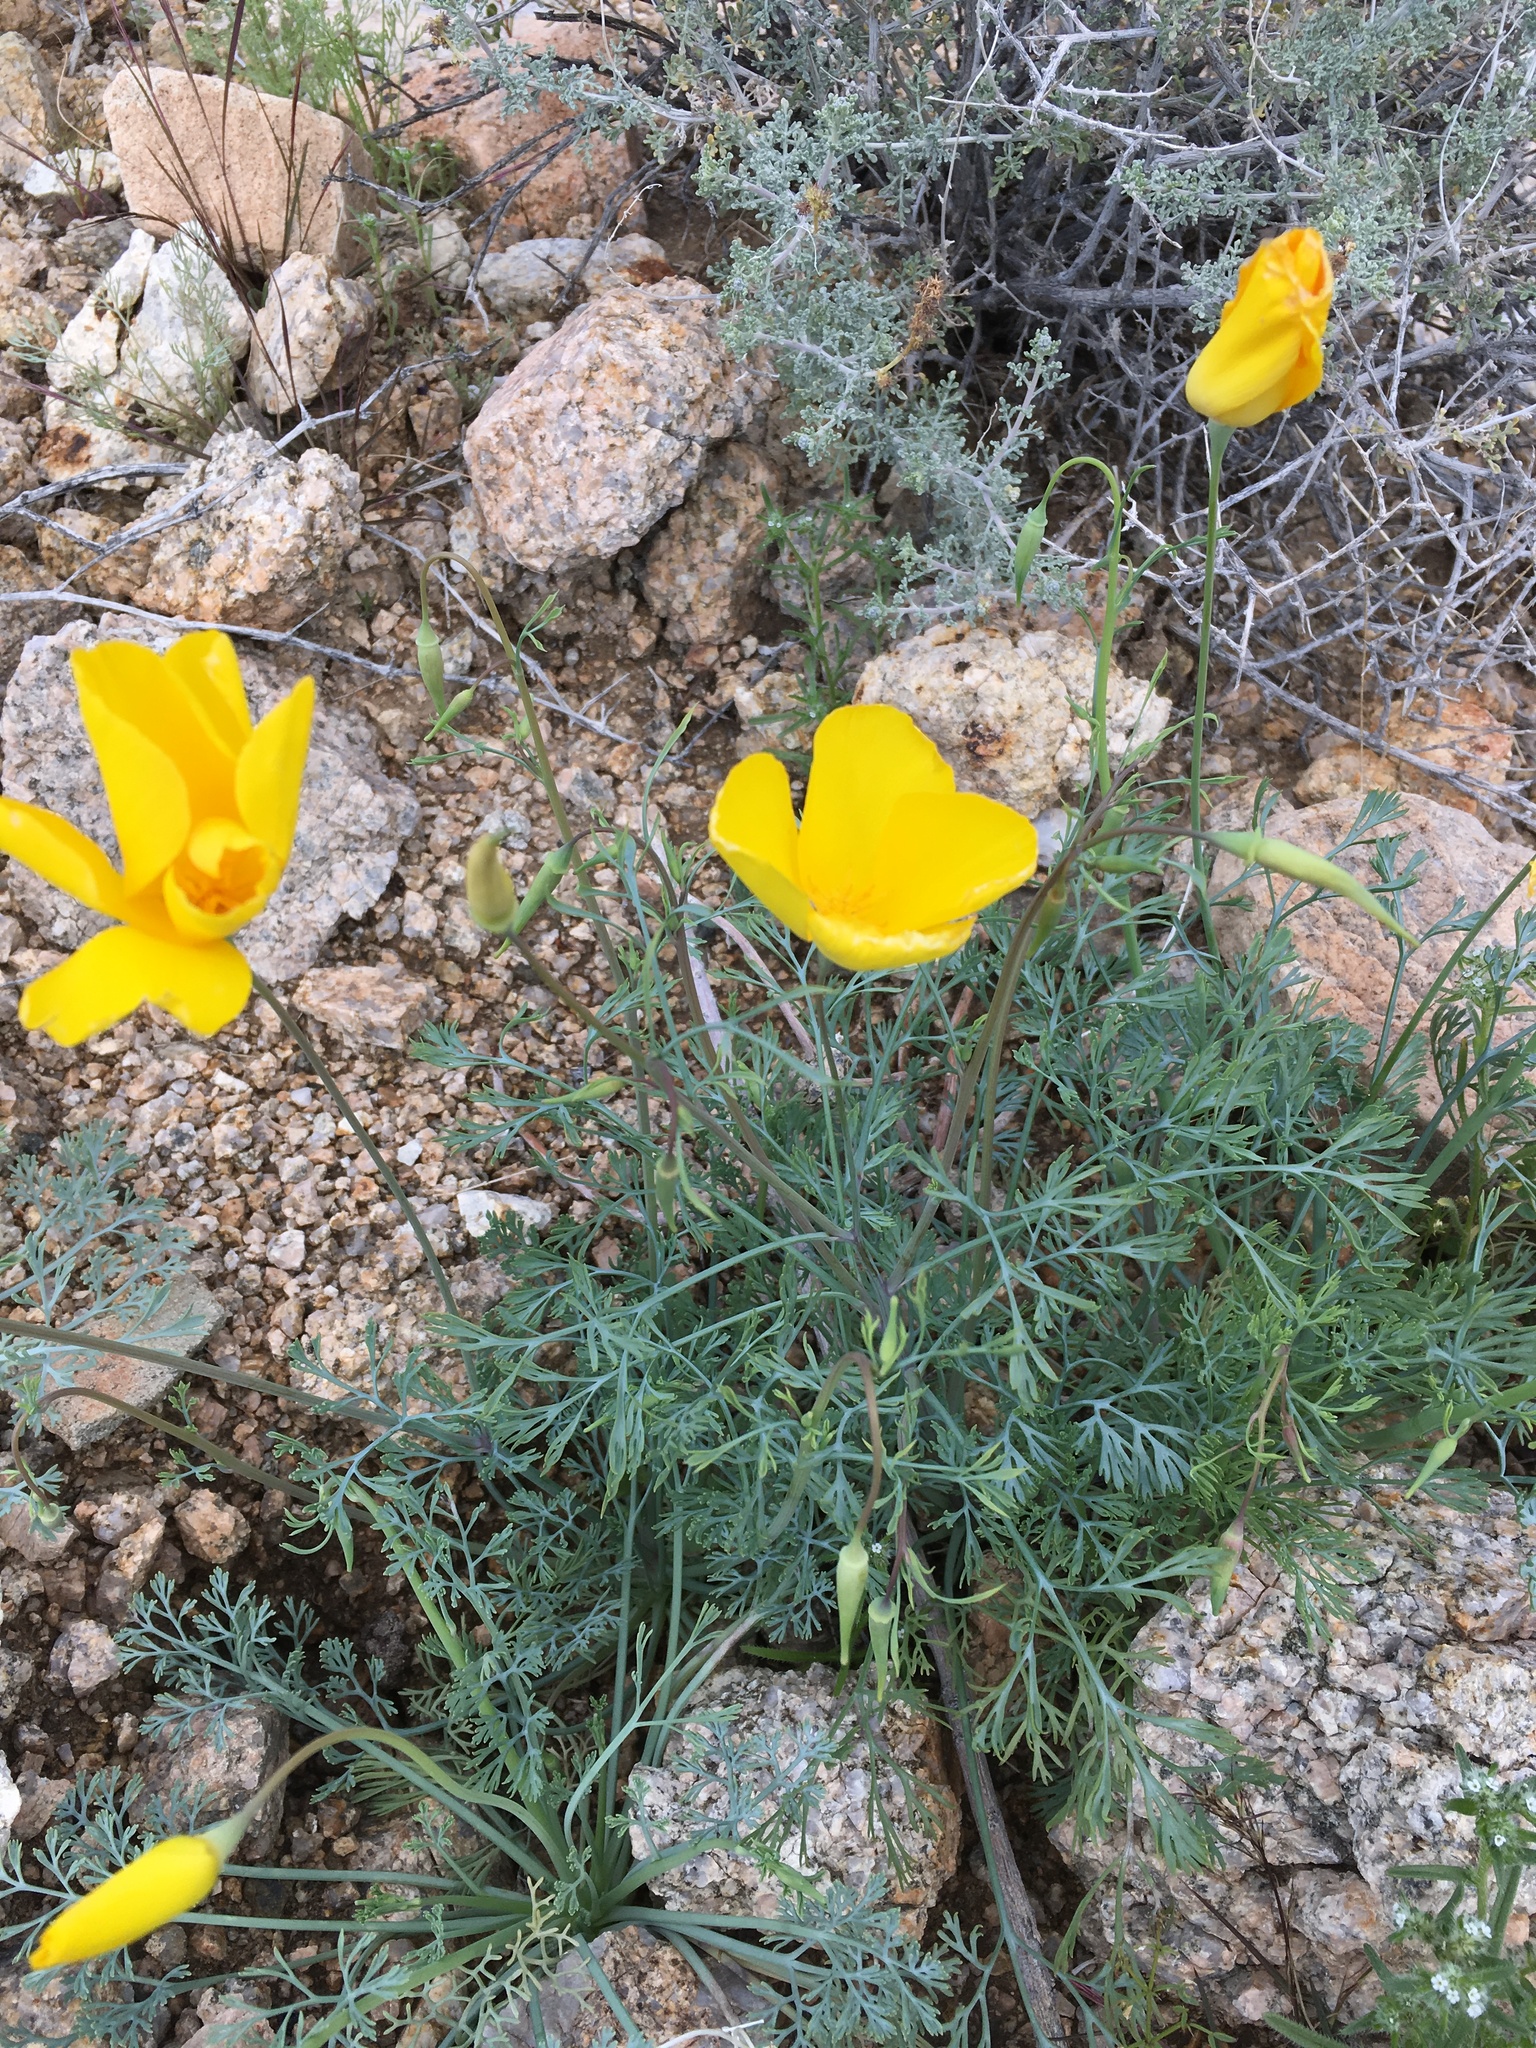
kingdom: Plantae
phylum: Tracheophyta
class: Magnoliopsida
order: Ranunculales
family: Papaveraceae
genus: Eschscholzia
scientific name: Eschscholzia papastillii
